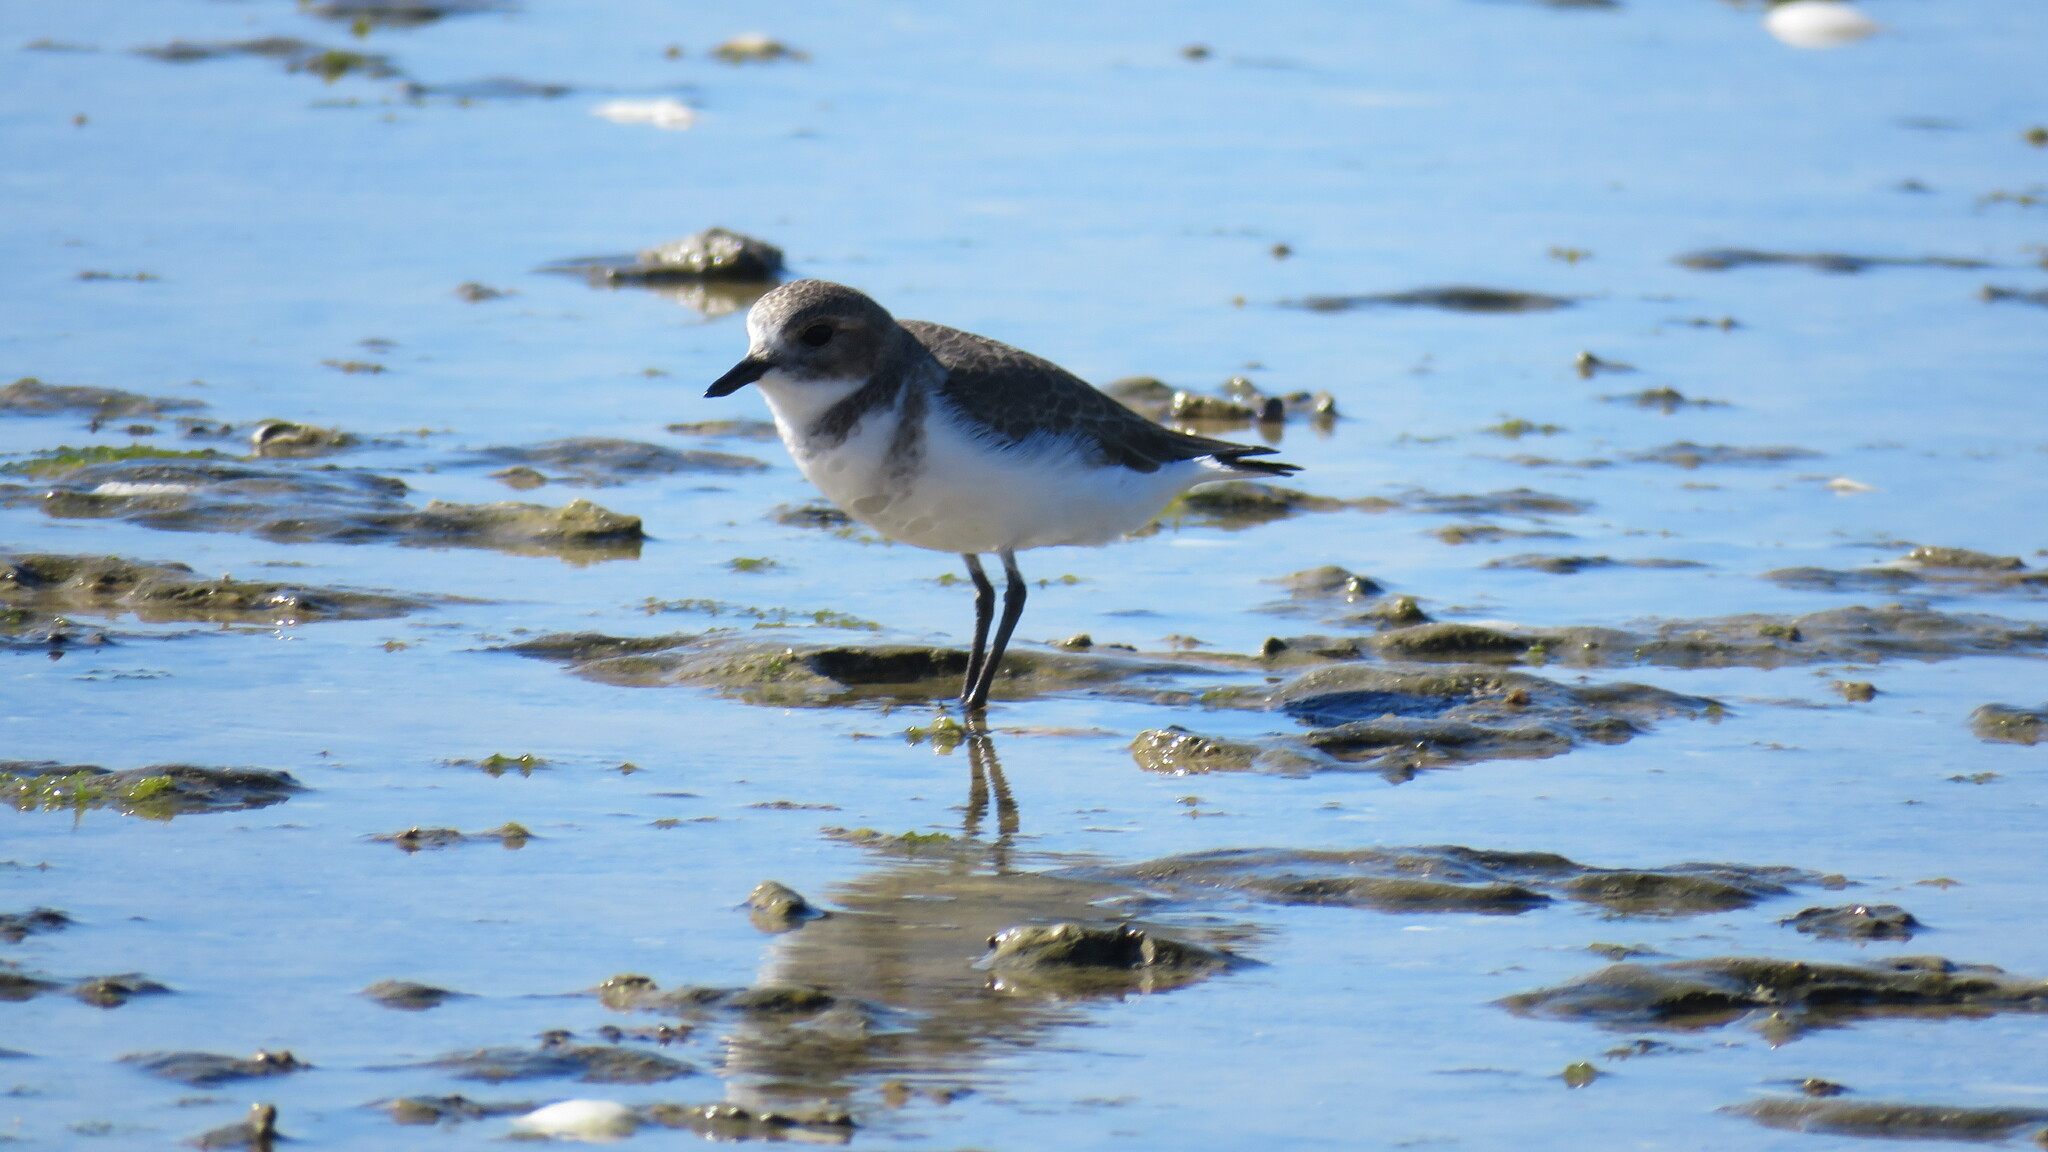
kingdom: Animalia
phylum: Chordata
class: Aves
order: Charadriiformes
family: Charadriidae
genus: Anarhynchus
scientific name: Anarhynchus
